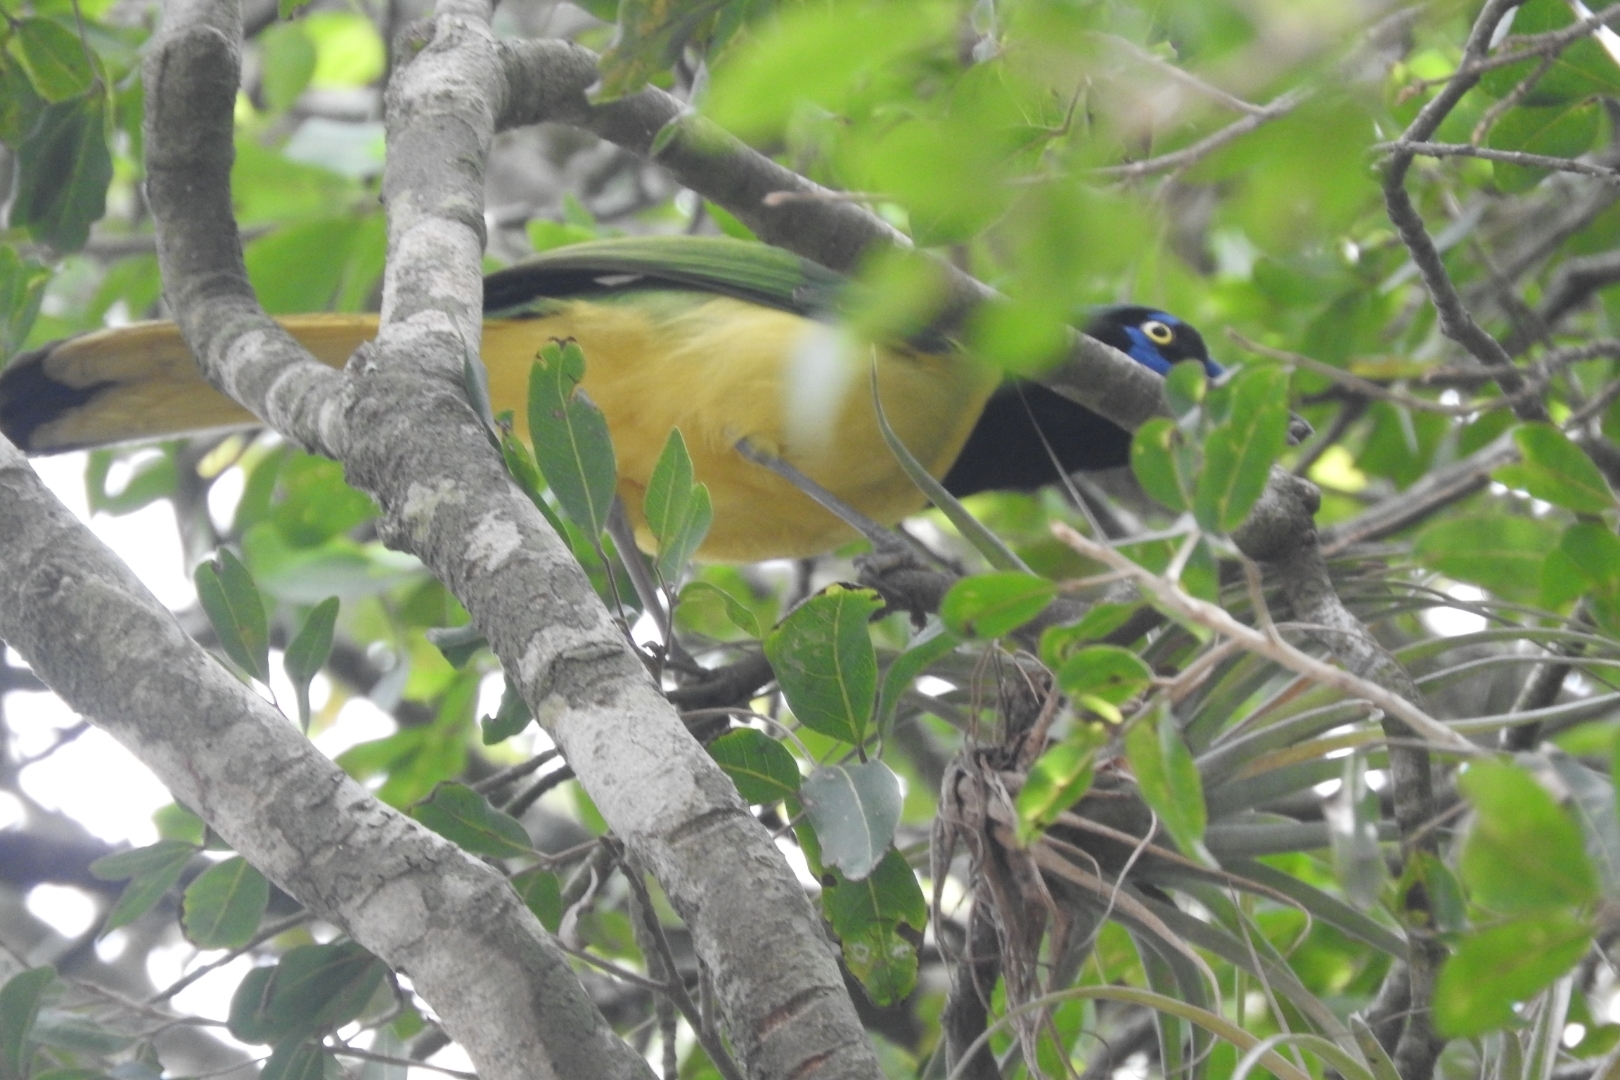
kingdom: Animalia
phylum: Chordata
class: Aves
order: Passeriformes
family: Corvidae
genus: Cyanocorax
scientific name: Cyanocorax yncas
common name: Green jay
